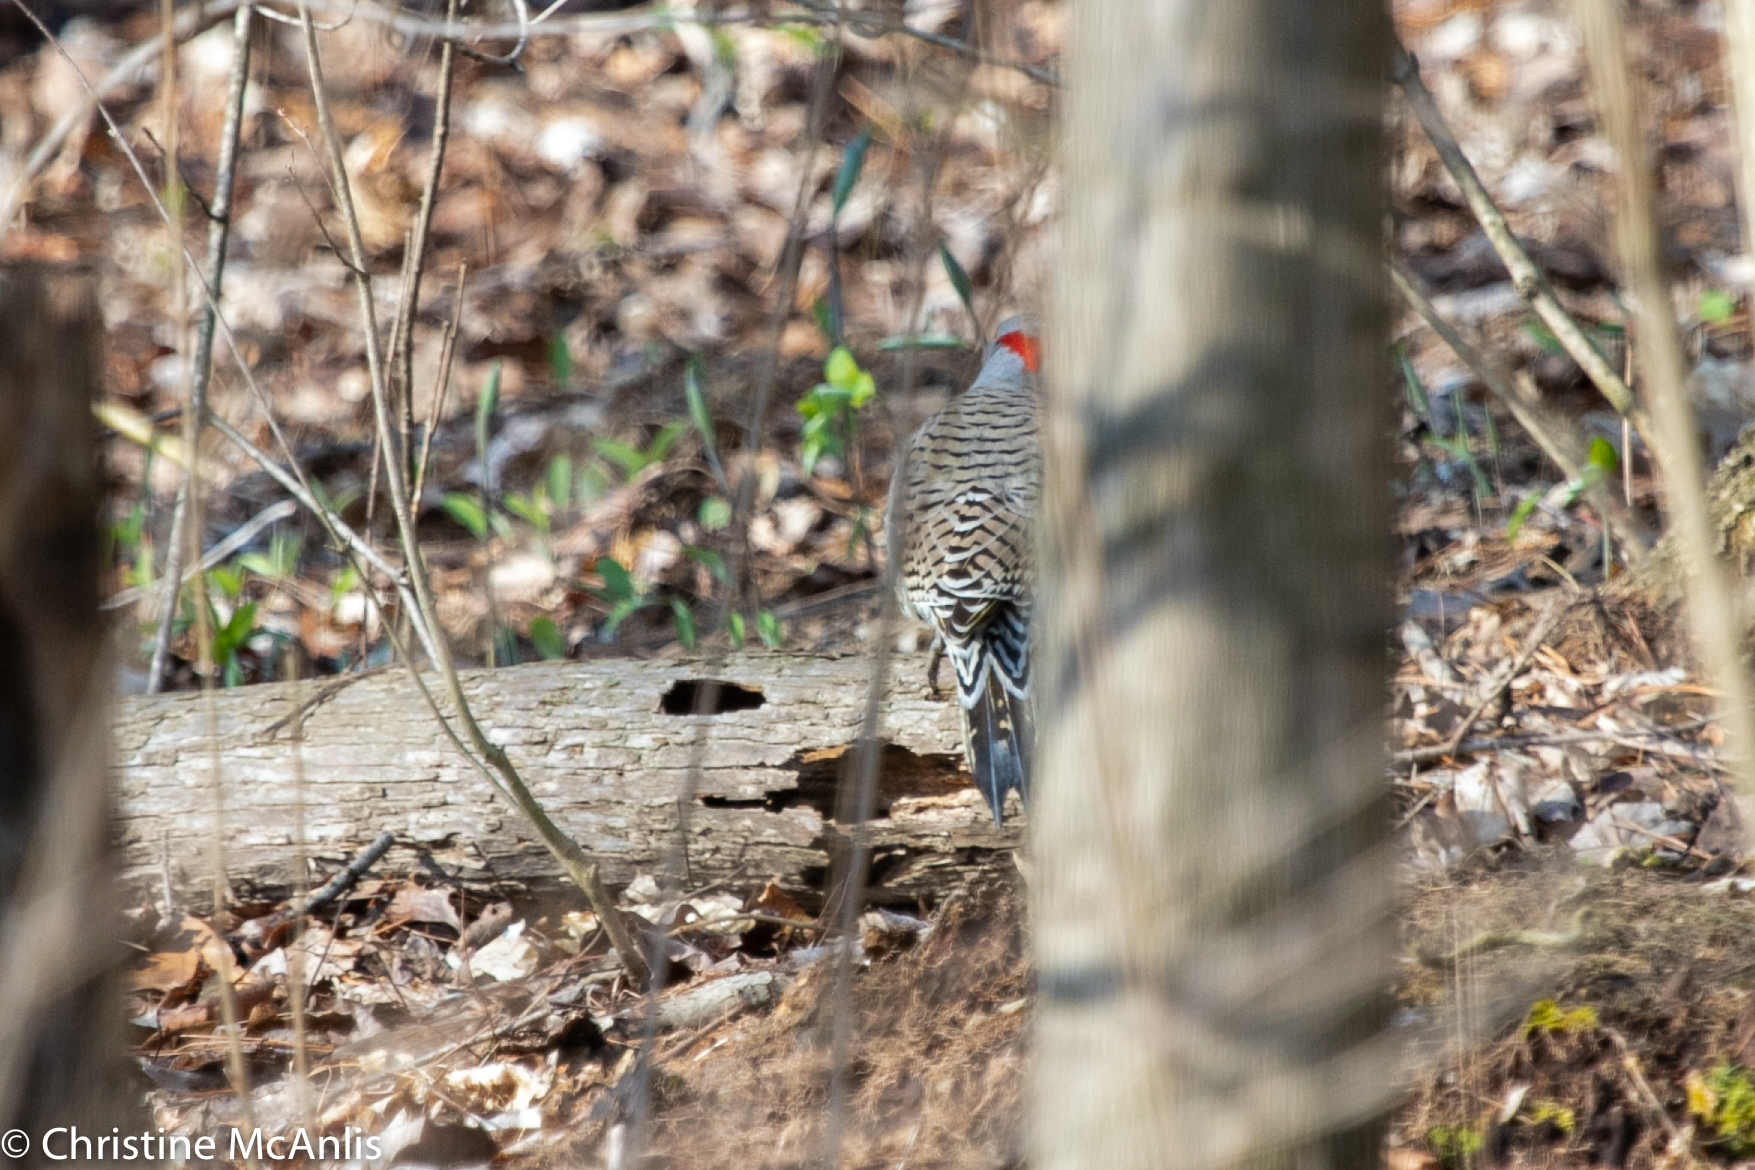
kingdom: Animalia
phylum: Chordata
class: Aves
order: Piciformes
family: Picidae
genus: Colaptes
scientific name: Colaptes auratus
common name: Northern flicker
